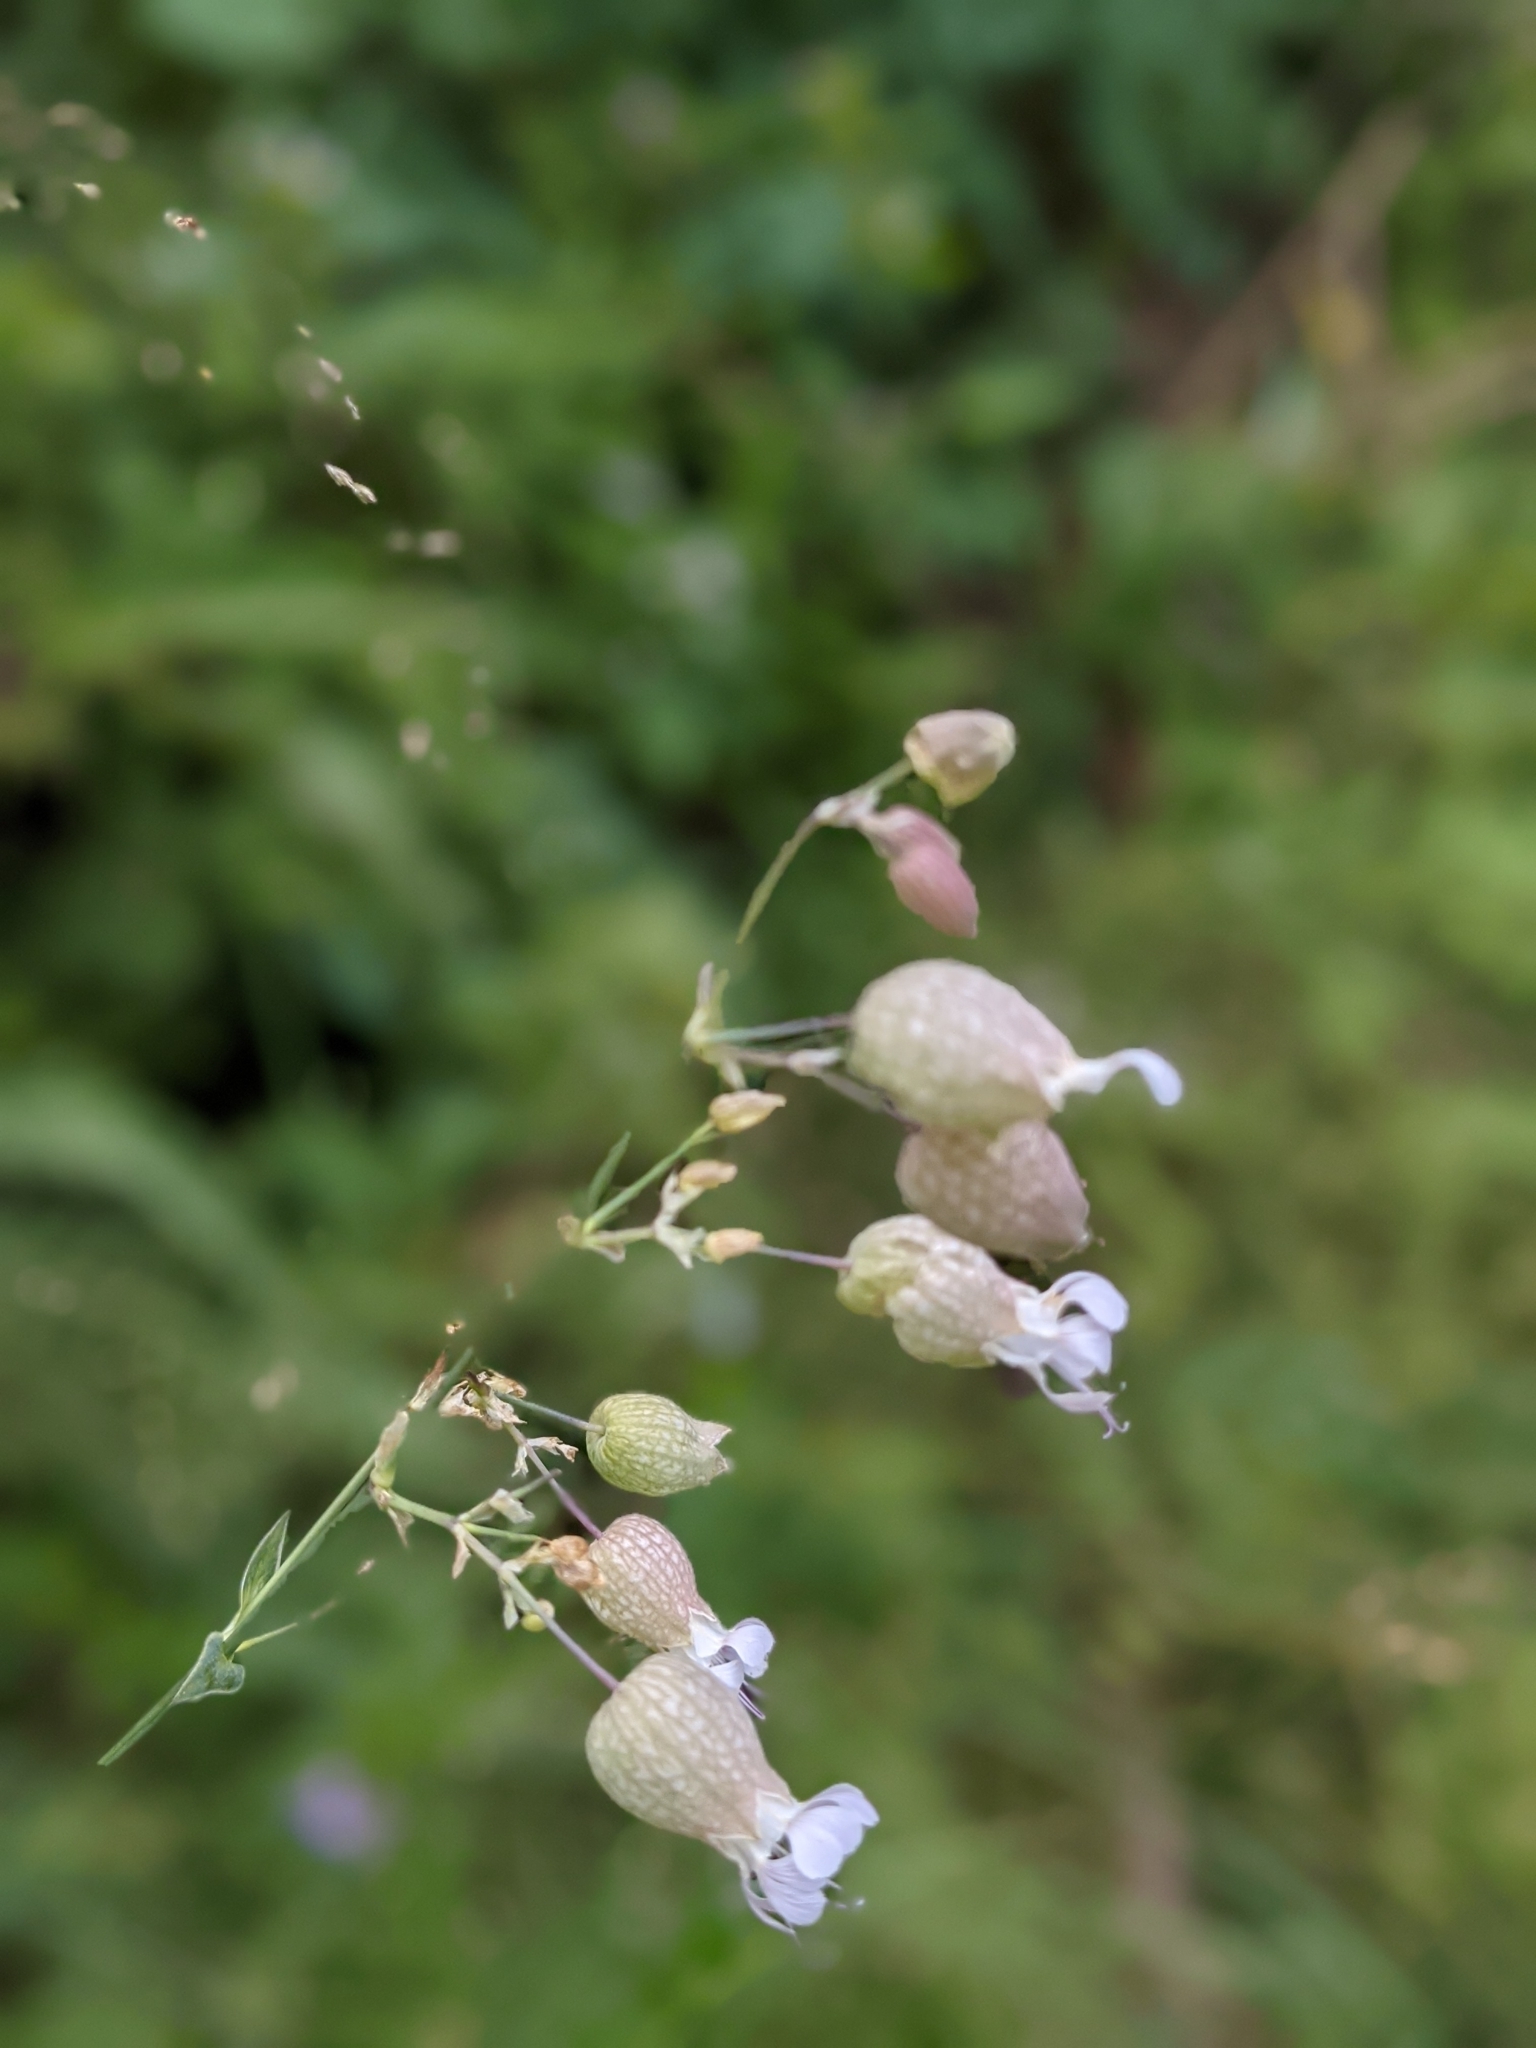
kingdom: Plantae
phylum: Tracheophyta
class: Magnoliopsida
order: Caryophyllales
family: Caryophyllaceae
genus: Silene
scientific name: Silene vulgaris
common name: Bladder campion
